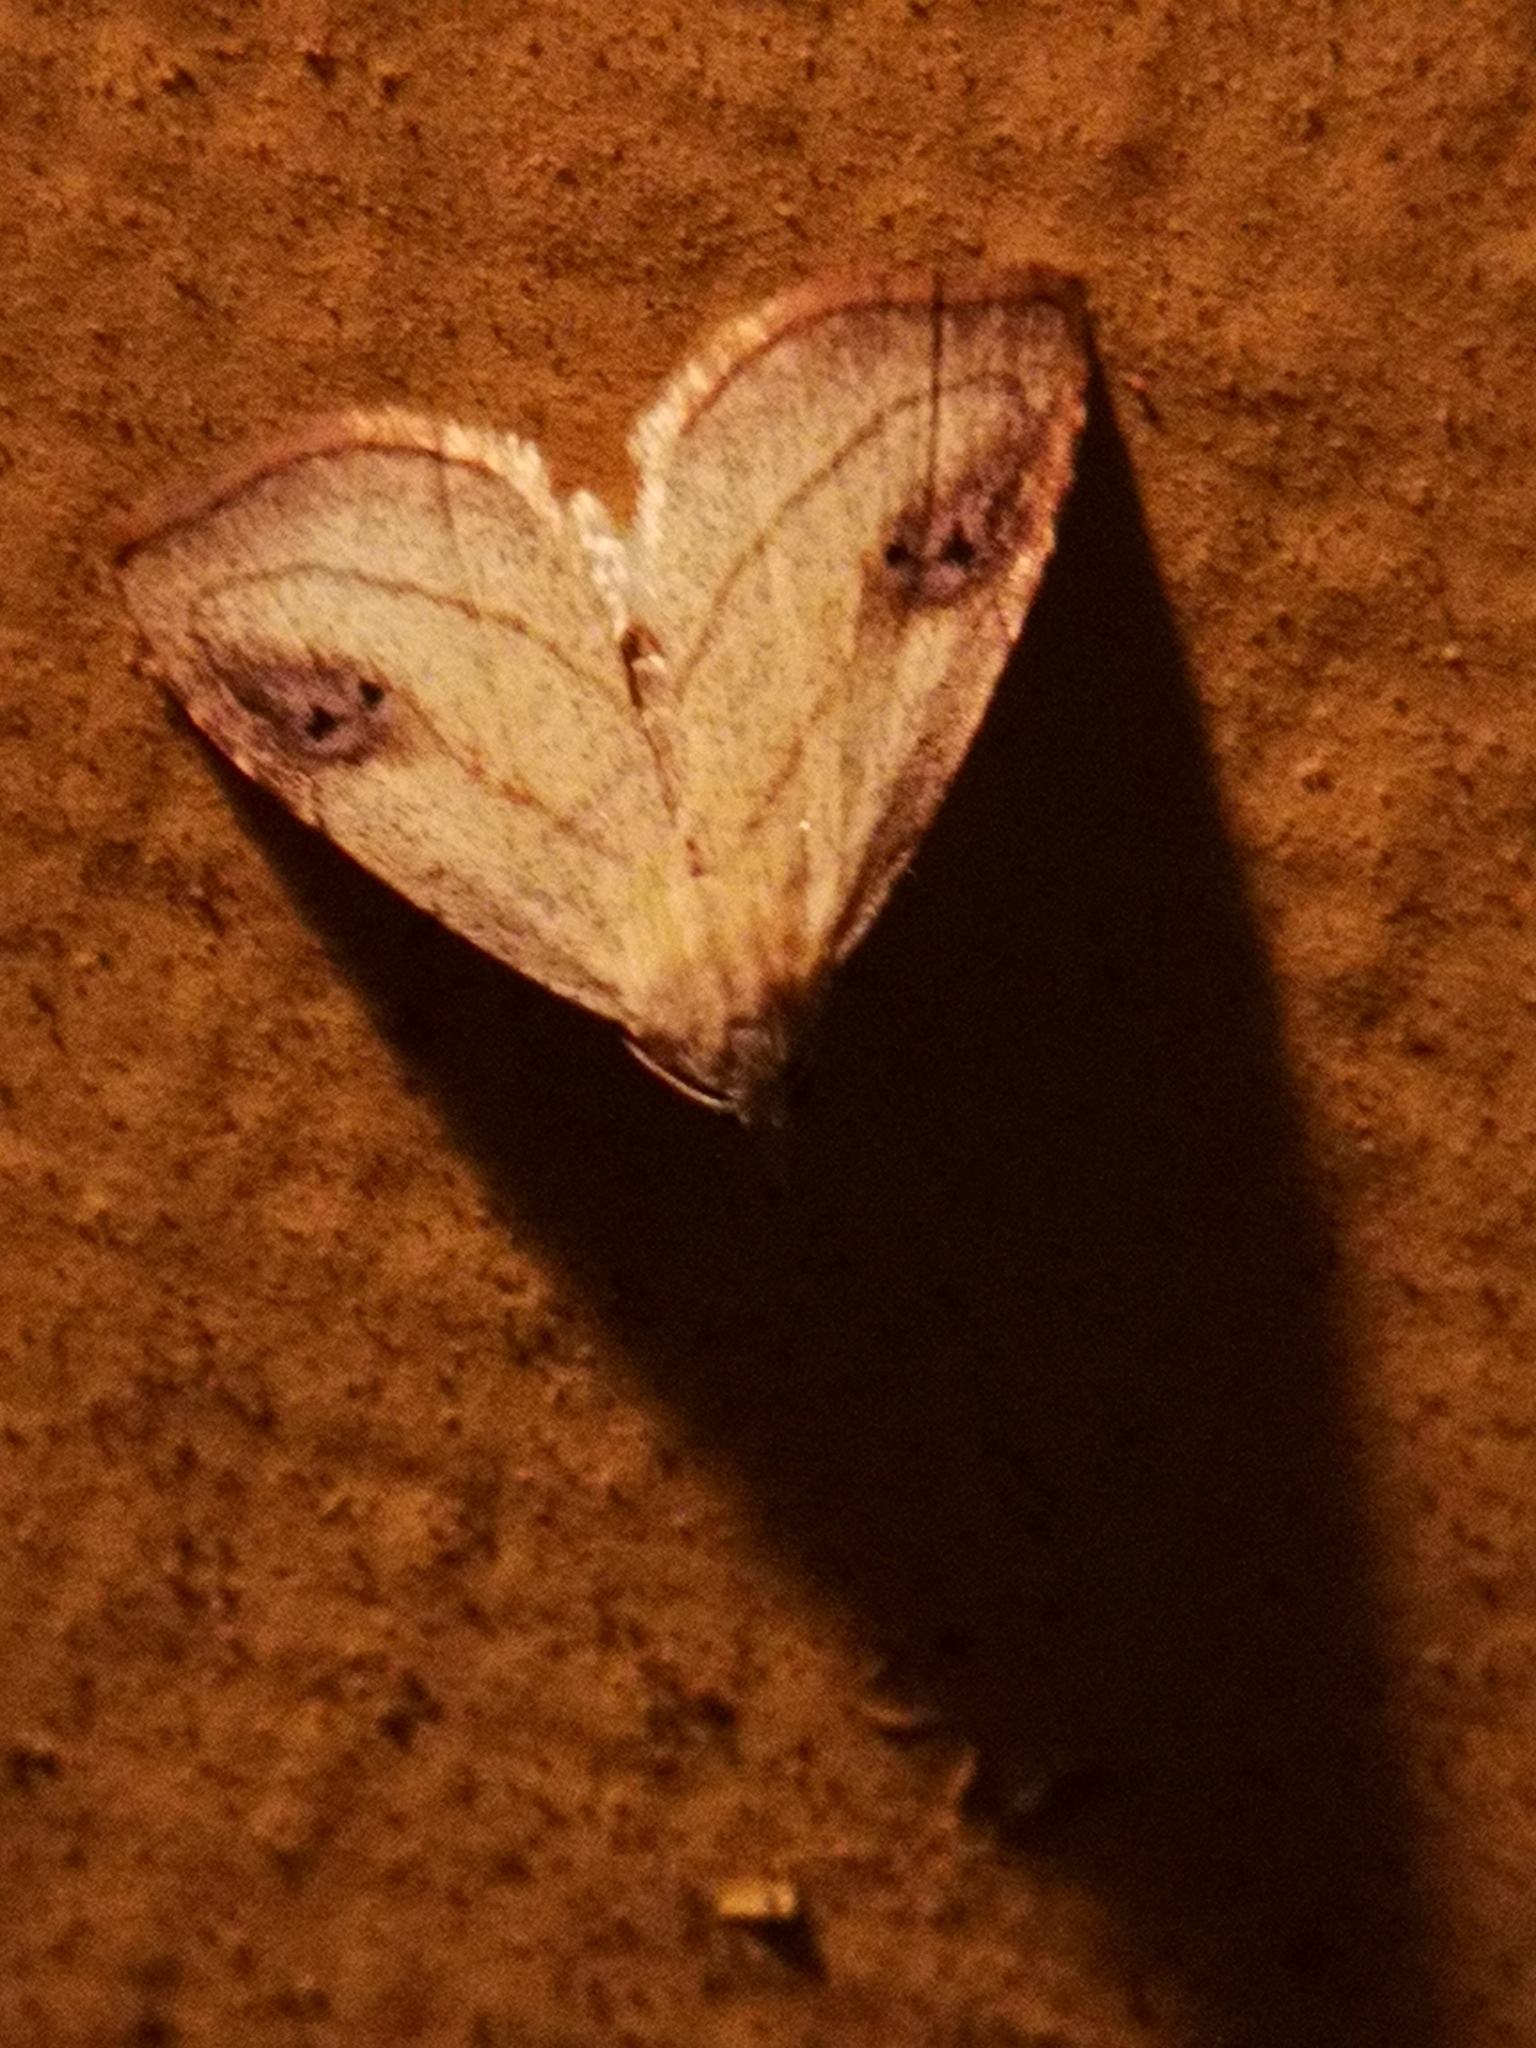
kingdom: Animalia
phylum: Arthropoda
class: Insecta
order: Lepidoptera
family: Erebidae
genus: Rivula
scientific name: Rivula propinqualis
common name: Spotted grass moth
